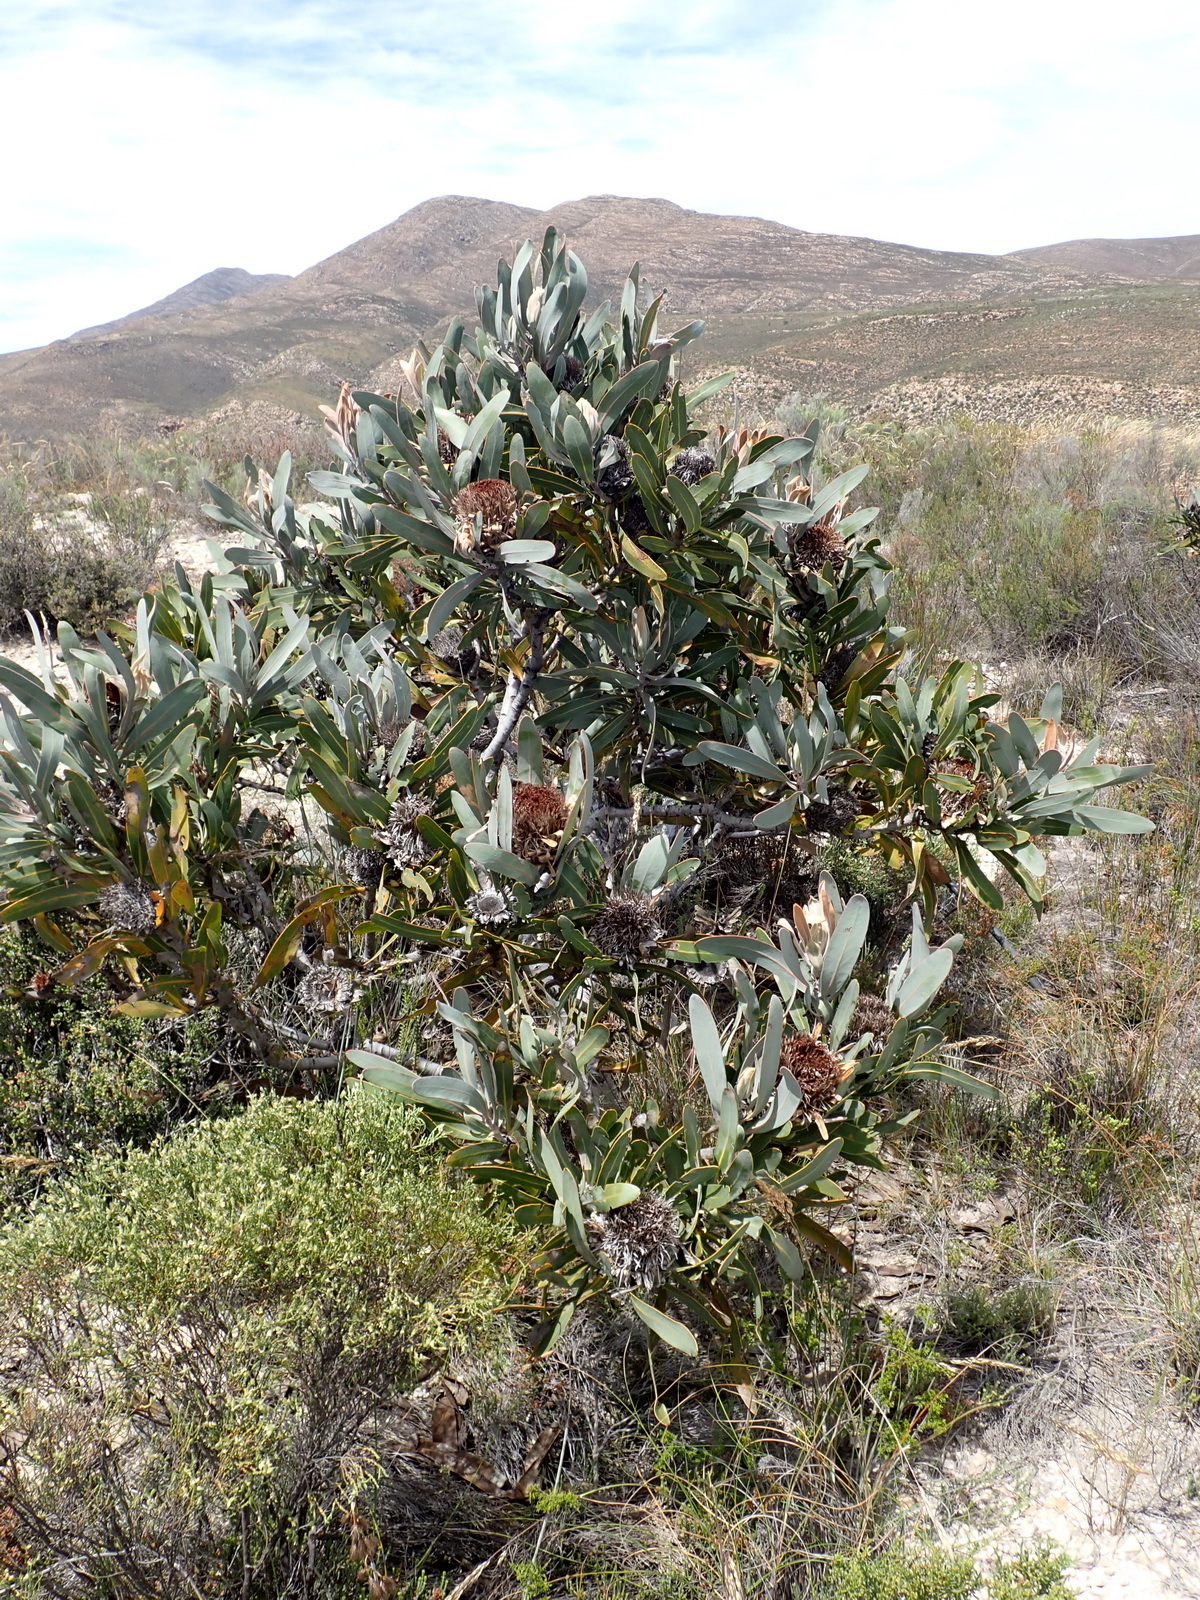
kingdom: Plantae
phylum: Tracheophyta
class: Magnoliopsida
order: Proteales
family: Proteaceae
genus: Protea
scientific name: Protea lorifolia
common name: Strap-leaved protea
